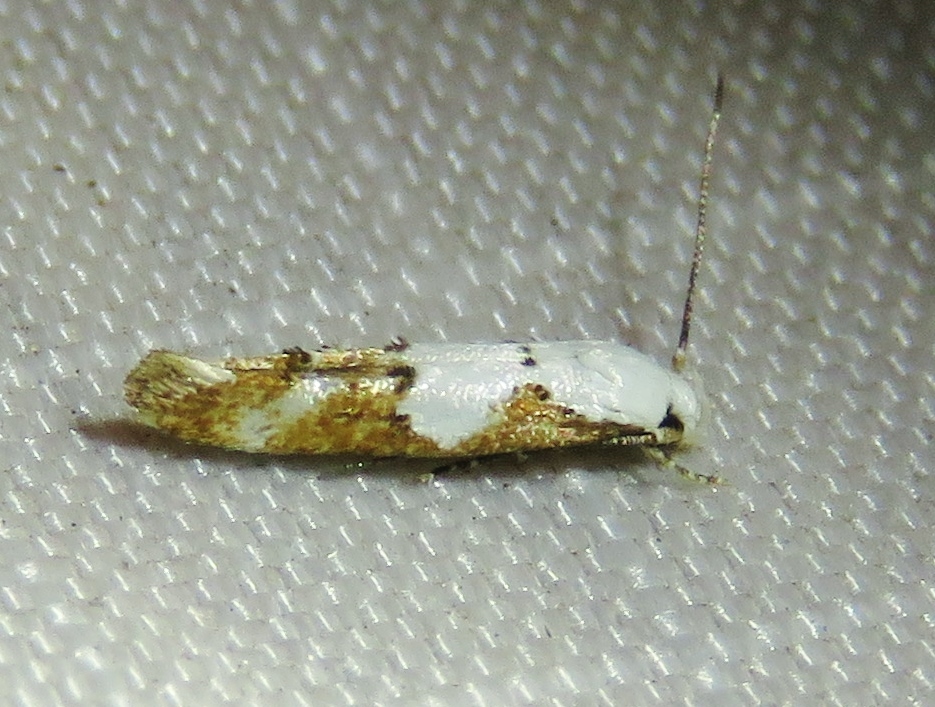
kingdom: Animalia
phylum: Arthropoda
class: Insecta
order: Lepidoptera
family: Momphidae
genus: Mompha
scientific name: Mompha circumscriptella
